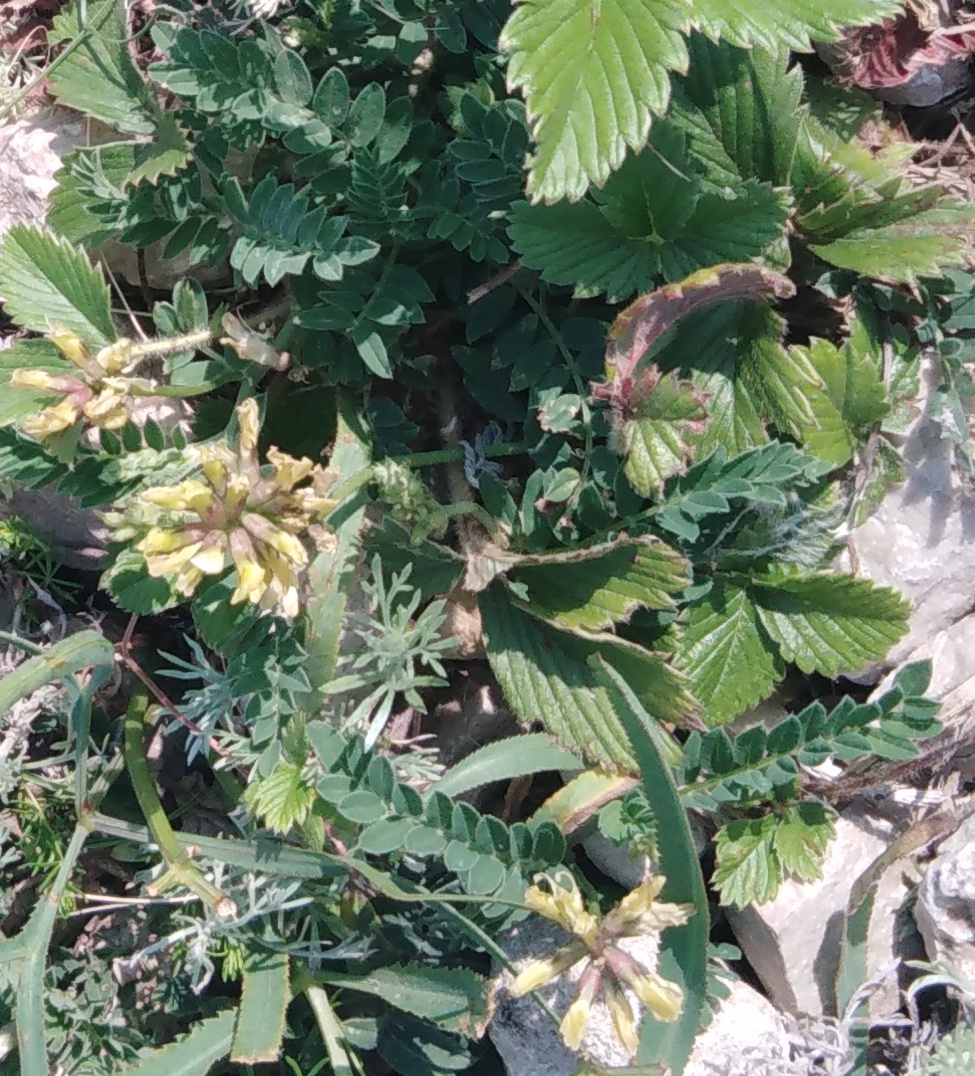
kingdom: Plantae
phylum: Tracheophyta
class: Magnoliopsida
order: Fabales
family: Fabaceae
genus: Astragalus
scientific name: Astragalus cicer
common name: Chick-pea milk-vetch
